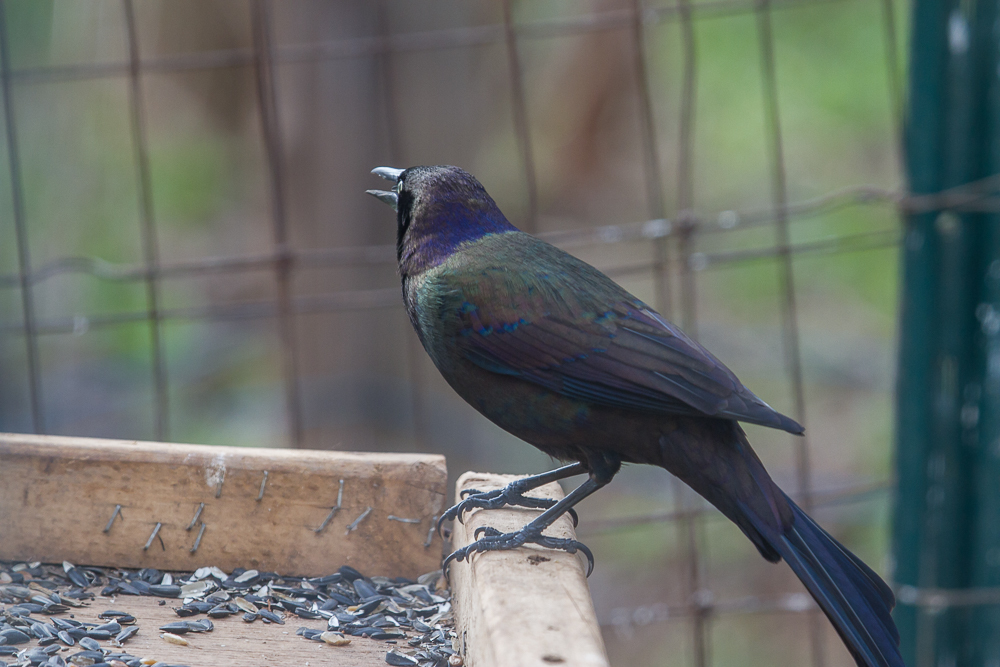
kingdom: Animalia
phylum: Chordata
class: Aves
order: Passeriformes
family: Icteridae
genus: Quiscalus
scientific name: Quiscalus quiscula
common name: Common grackle
